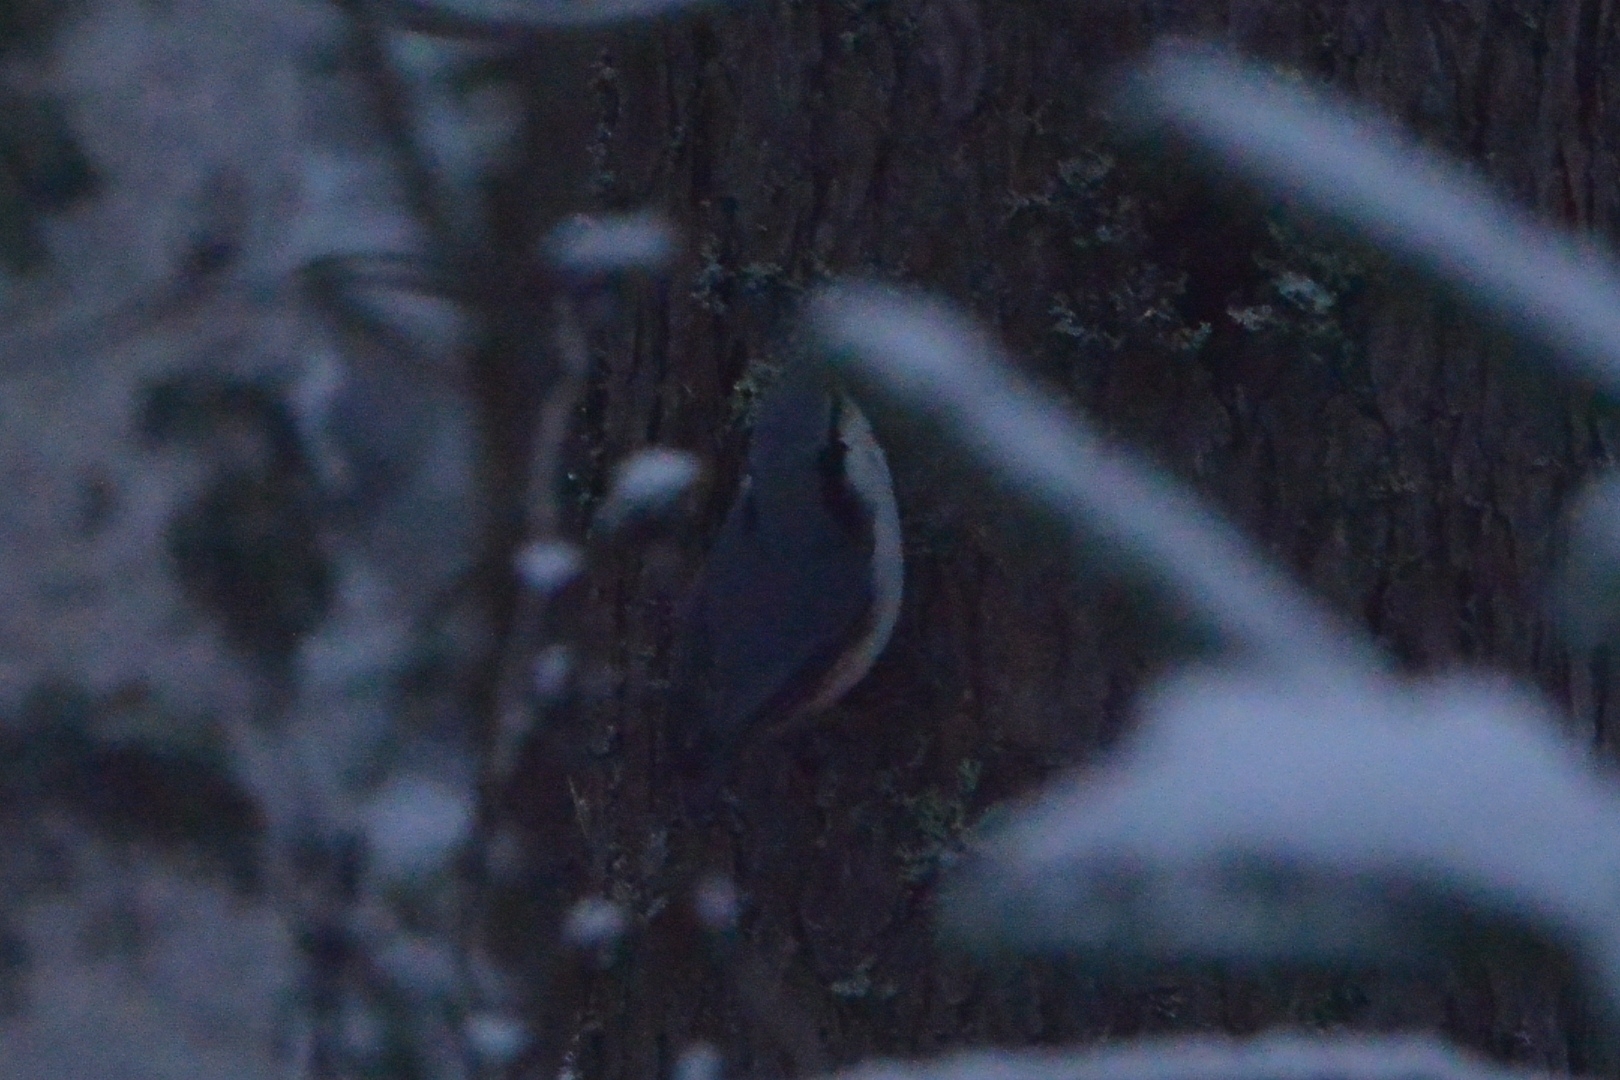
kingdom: Animalia
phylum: Chordata
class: Aves
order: Passeriformes
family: Sittidae
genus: Sitta
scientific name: Sitta europaea
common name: Eurasian nuthatch
